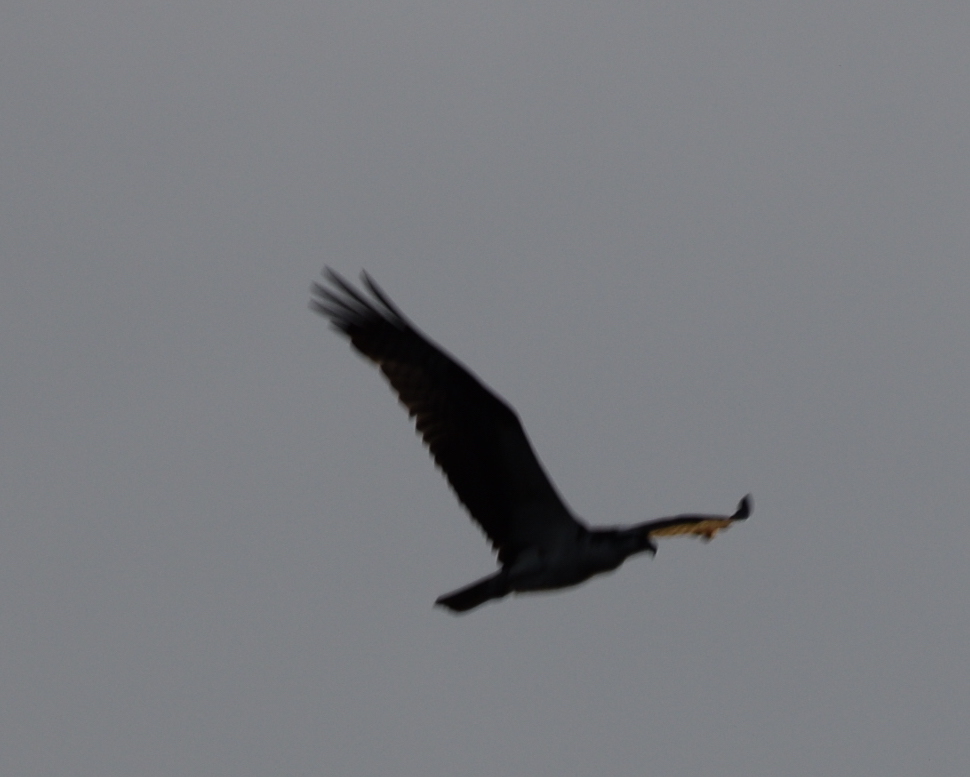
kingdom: Animalia
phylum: Chordata
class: Aves
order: Accipitriformes
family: Pandionidae
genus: Pandion
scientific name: Pandion haliaetus
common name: Osprey
